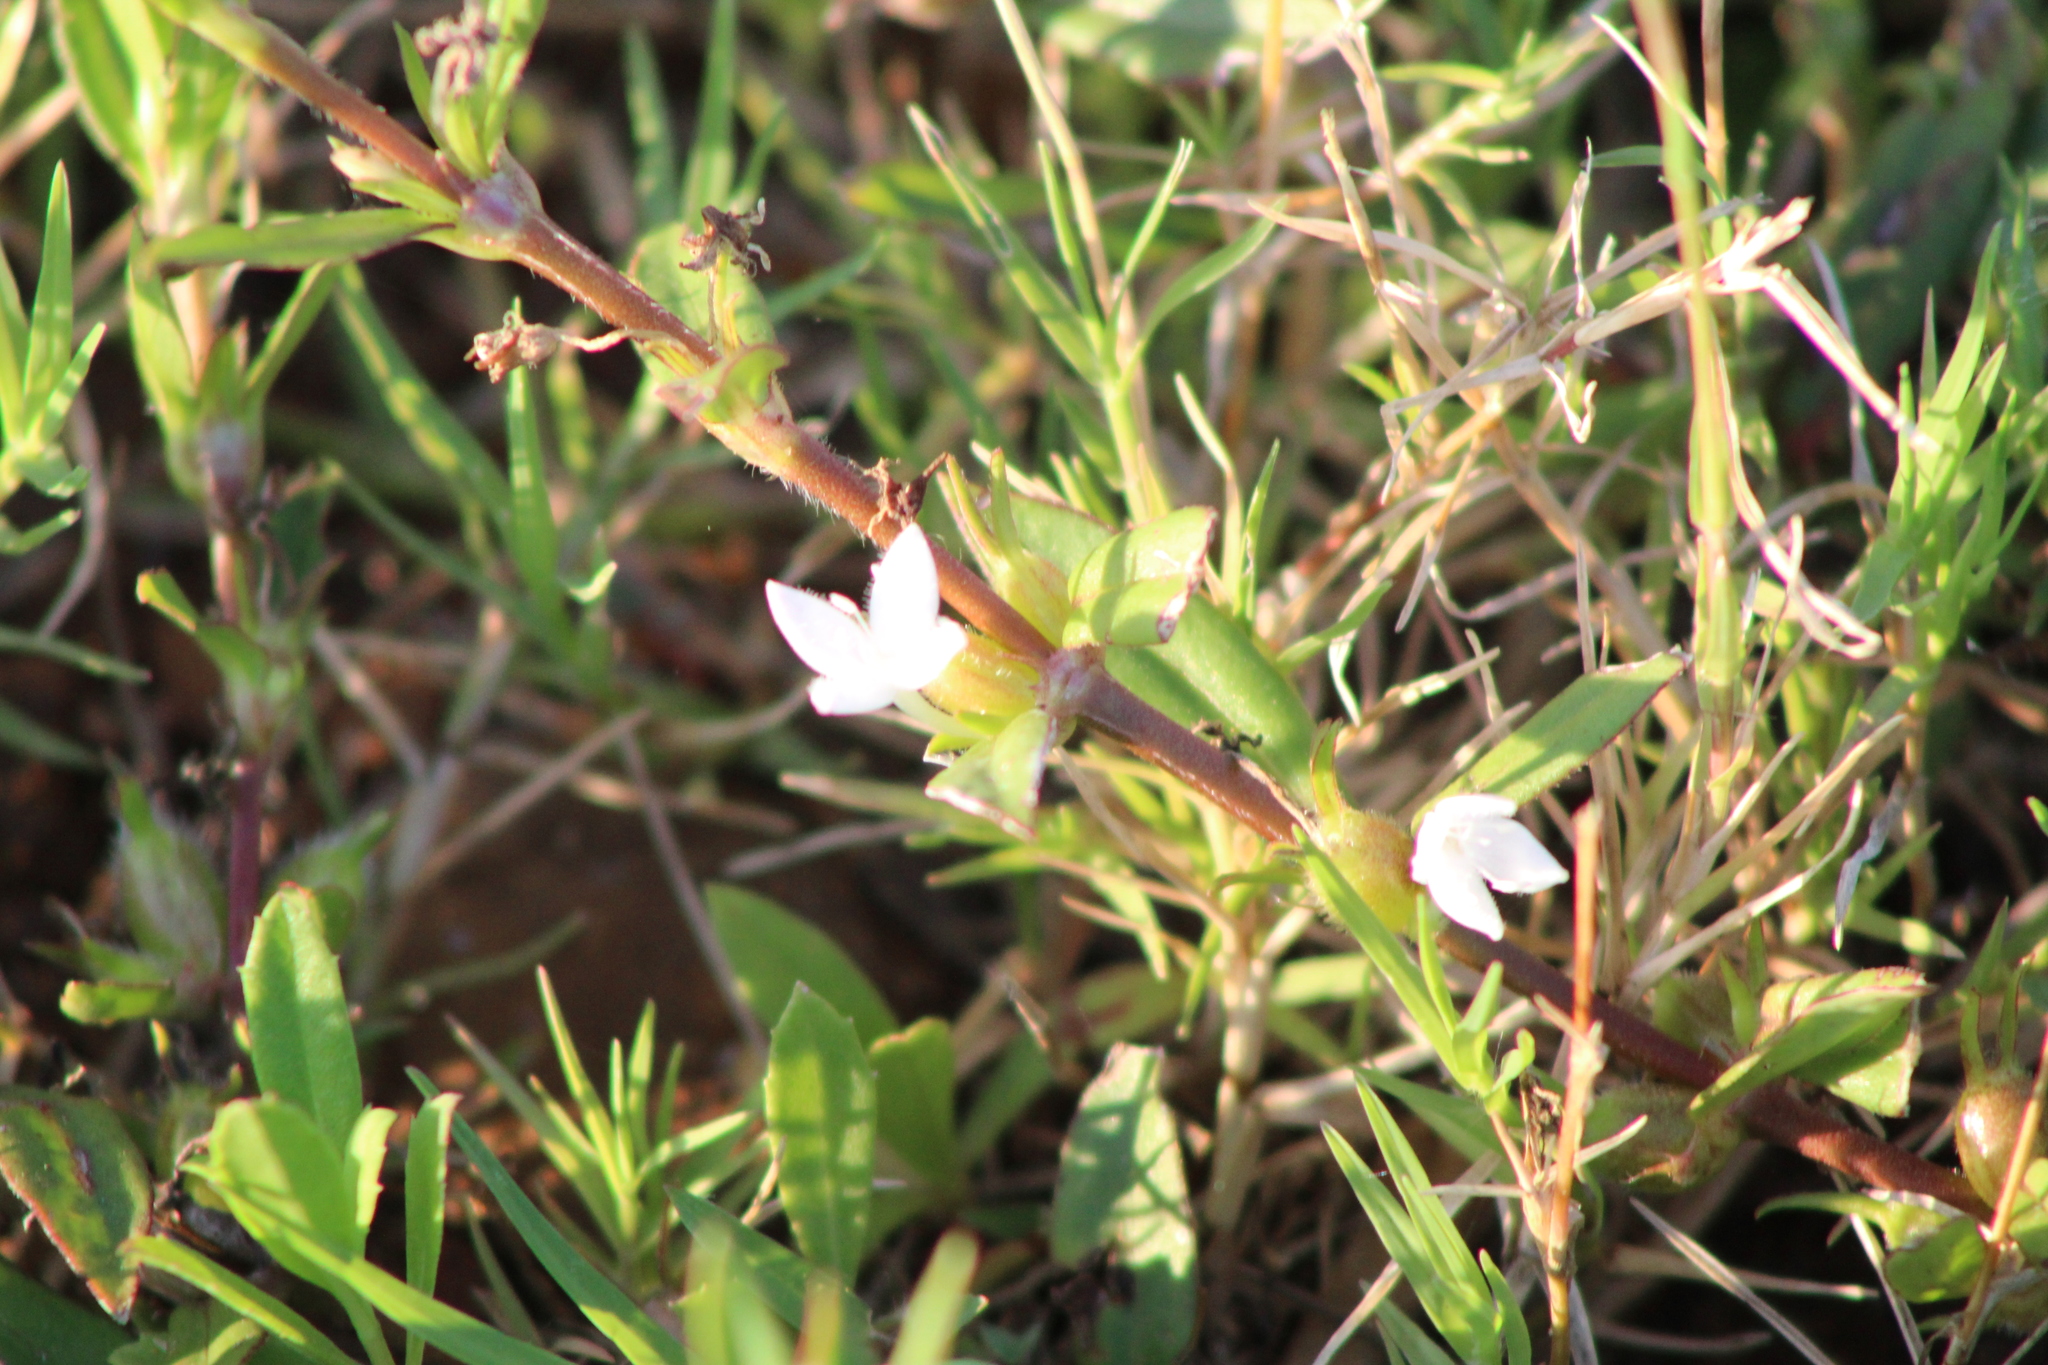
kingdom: Plantae
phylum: Tracheophyta
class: Magnoliopsida
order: Gentianales
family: Rubiaceae
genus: Diodia
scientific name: Diodia virginiana
